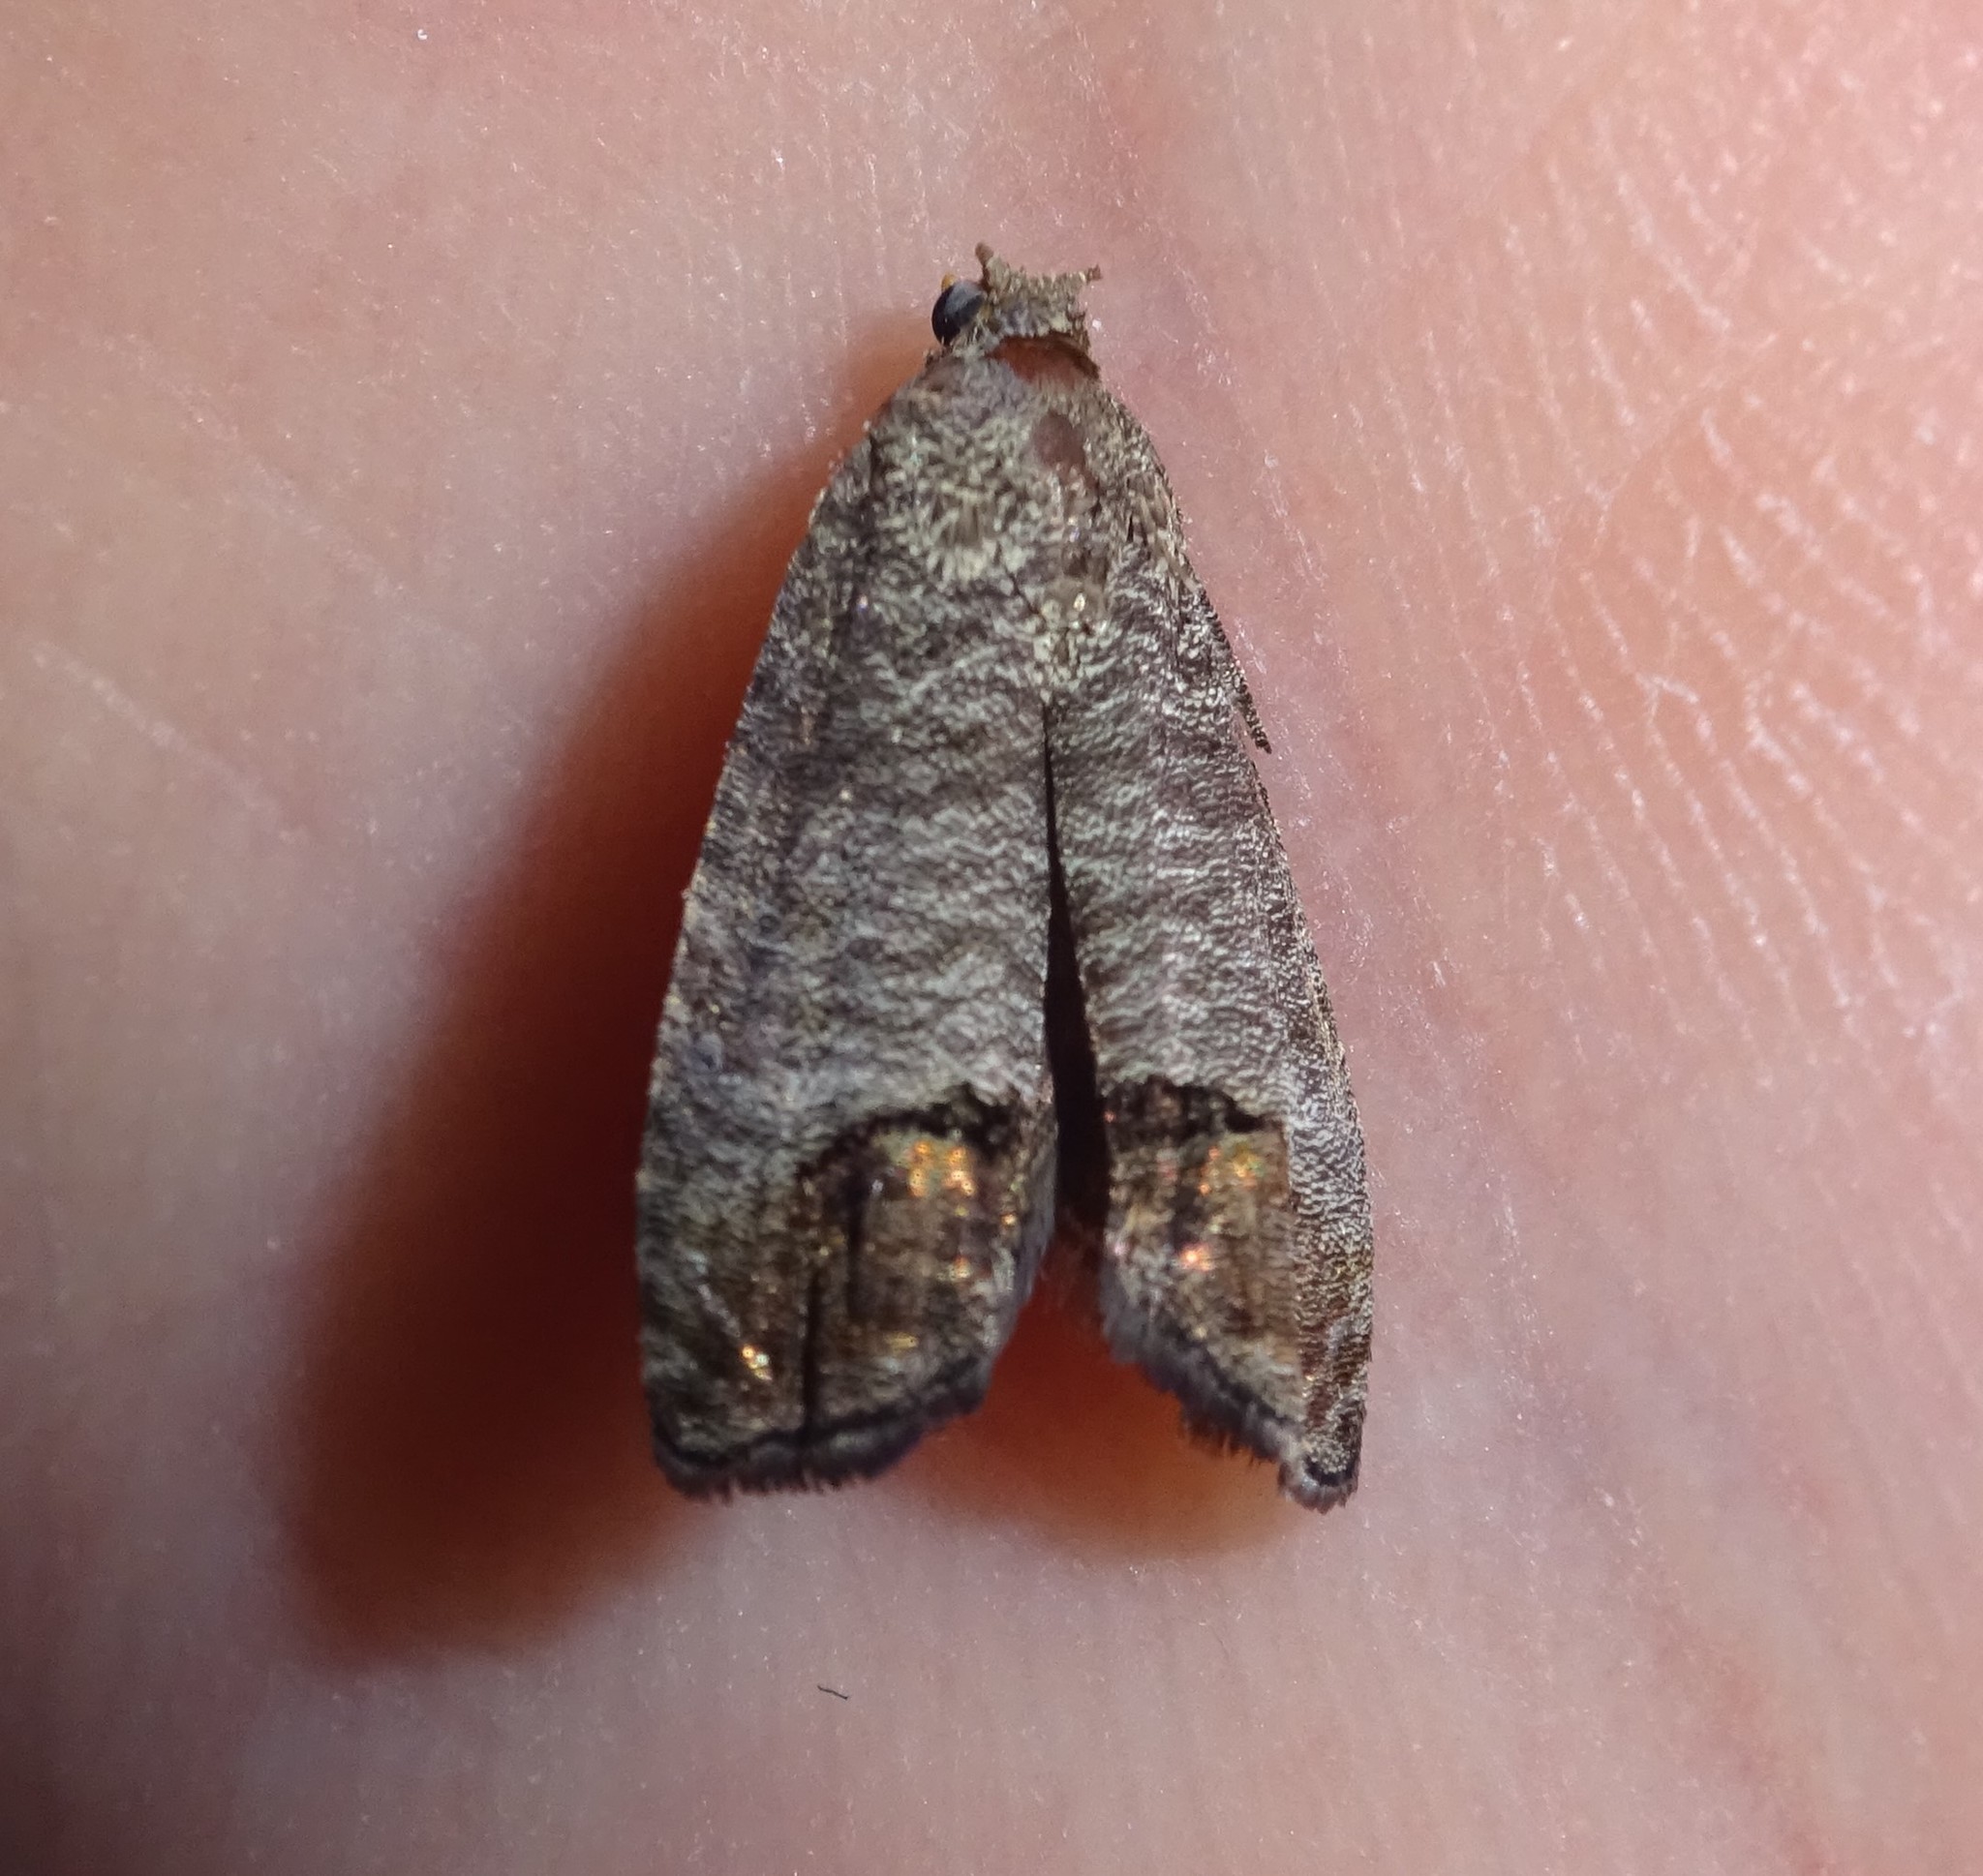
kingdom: Animalia
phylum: Arthropoda
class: Insecta
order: Lepidoptera
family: Tortricidae
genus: Cydia
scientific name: Cydia pomonella
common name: Codling moth
